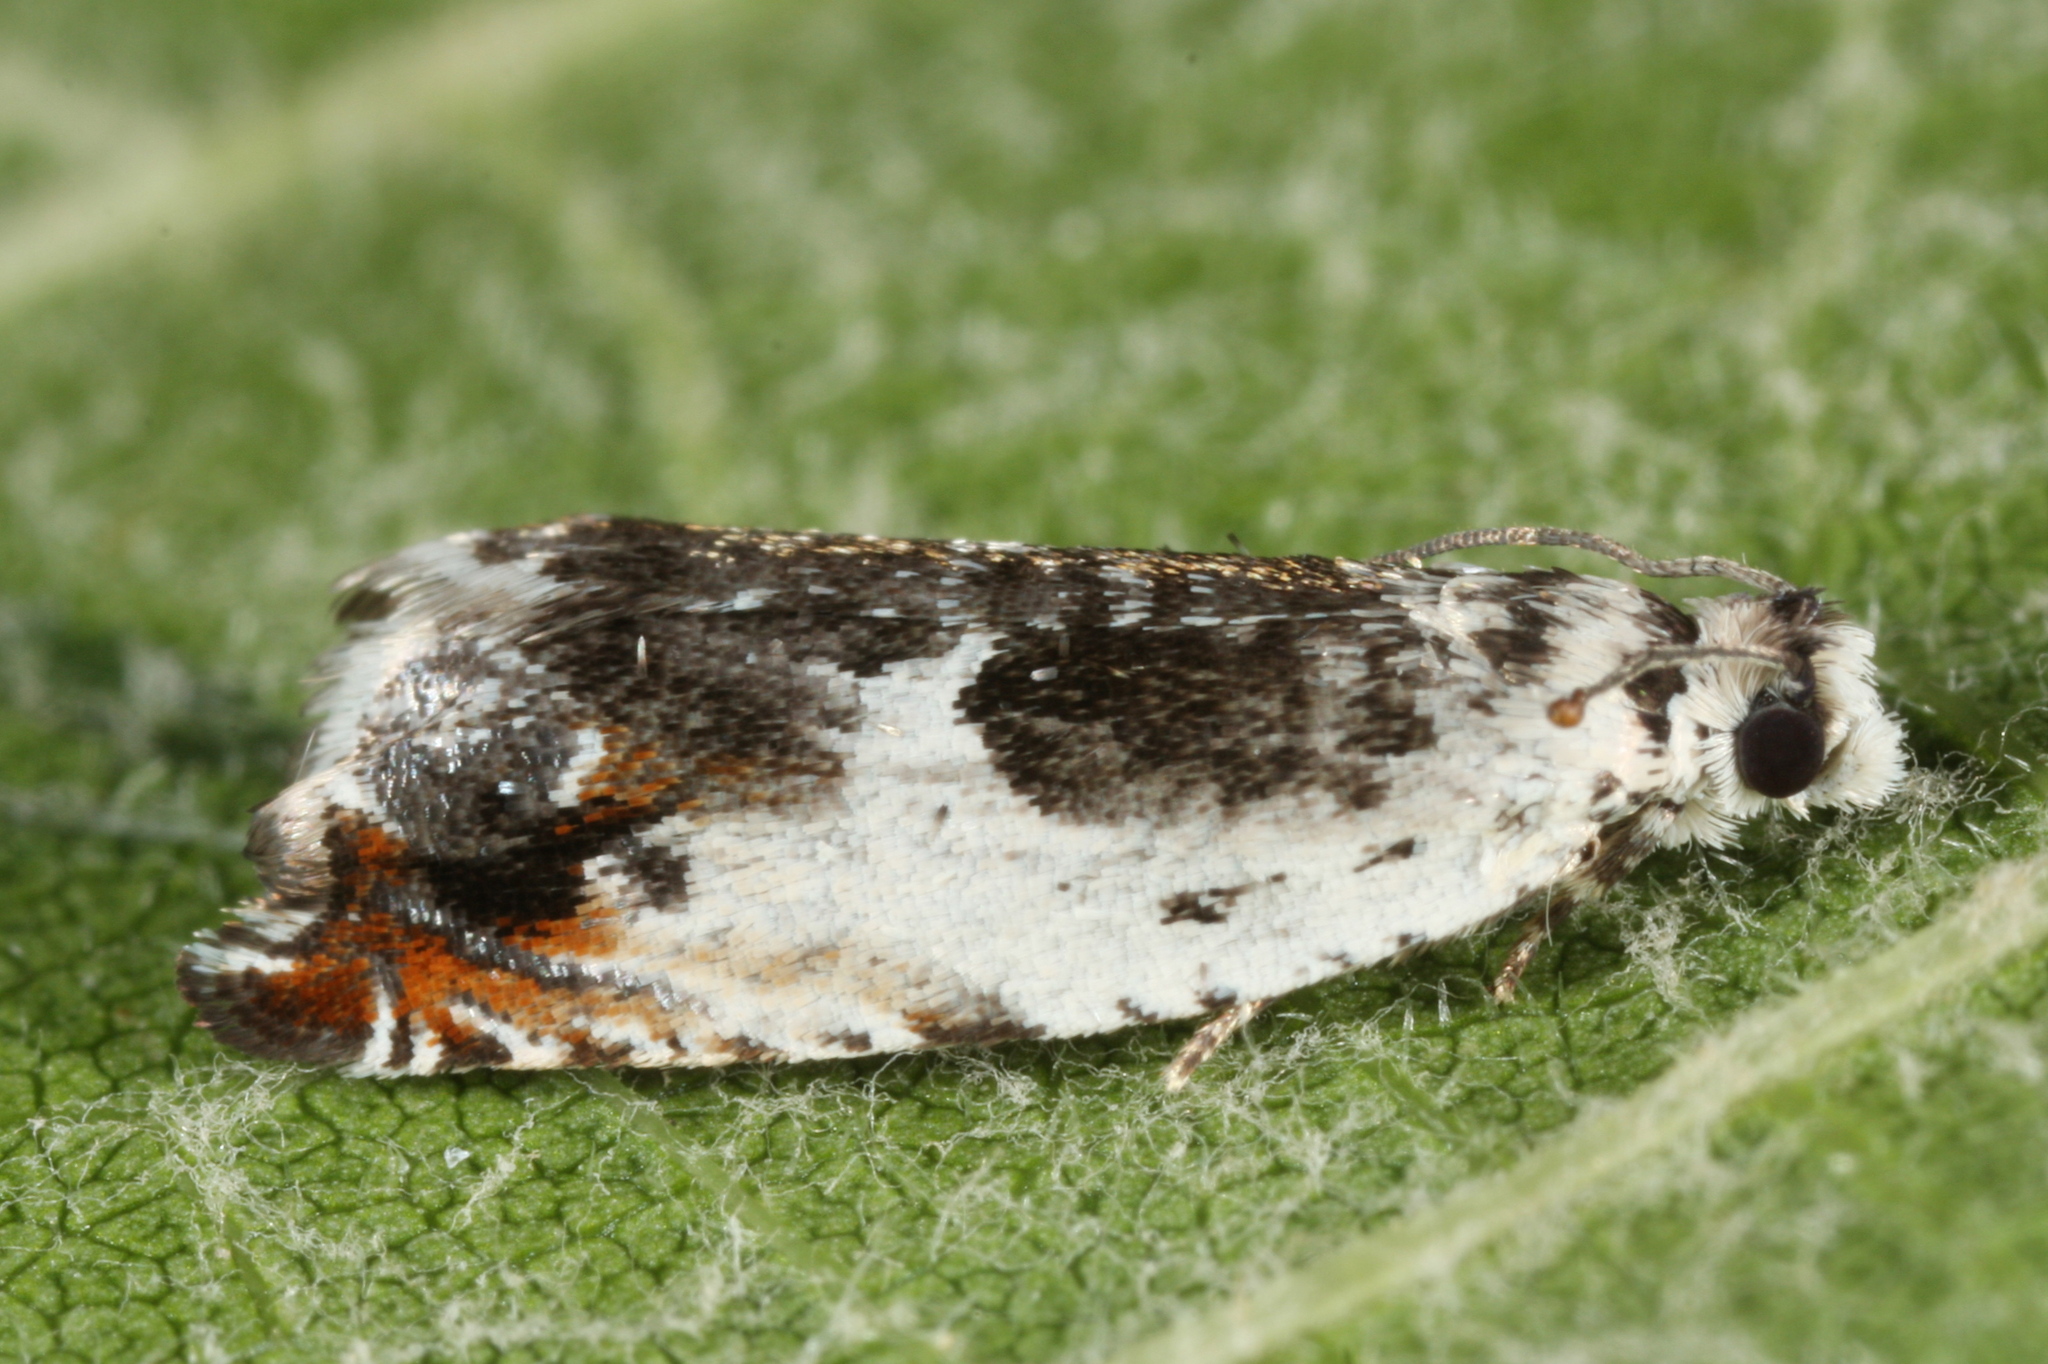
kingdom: Animalia
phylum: Arthropoda
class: Insecta
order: Lepidoptera
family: Tortricidae
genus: Ancylis
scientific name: Ancylis laetana
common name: Aspen roller
